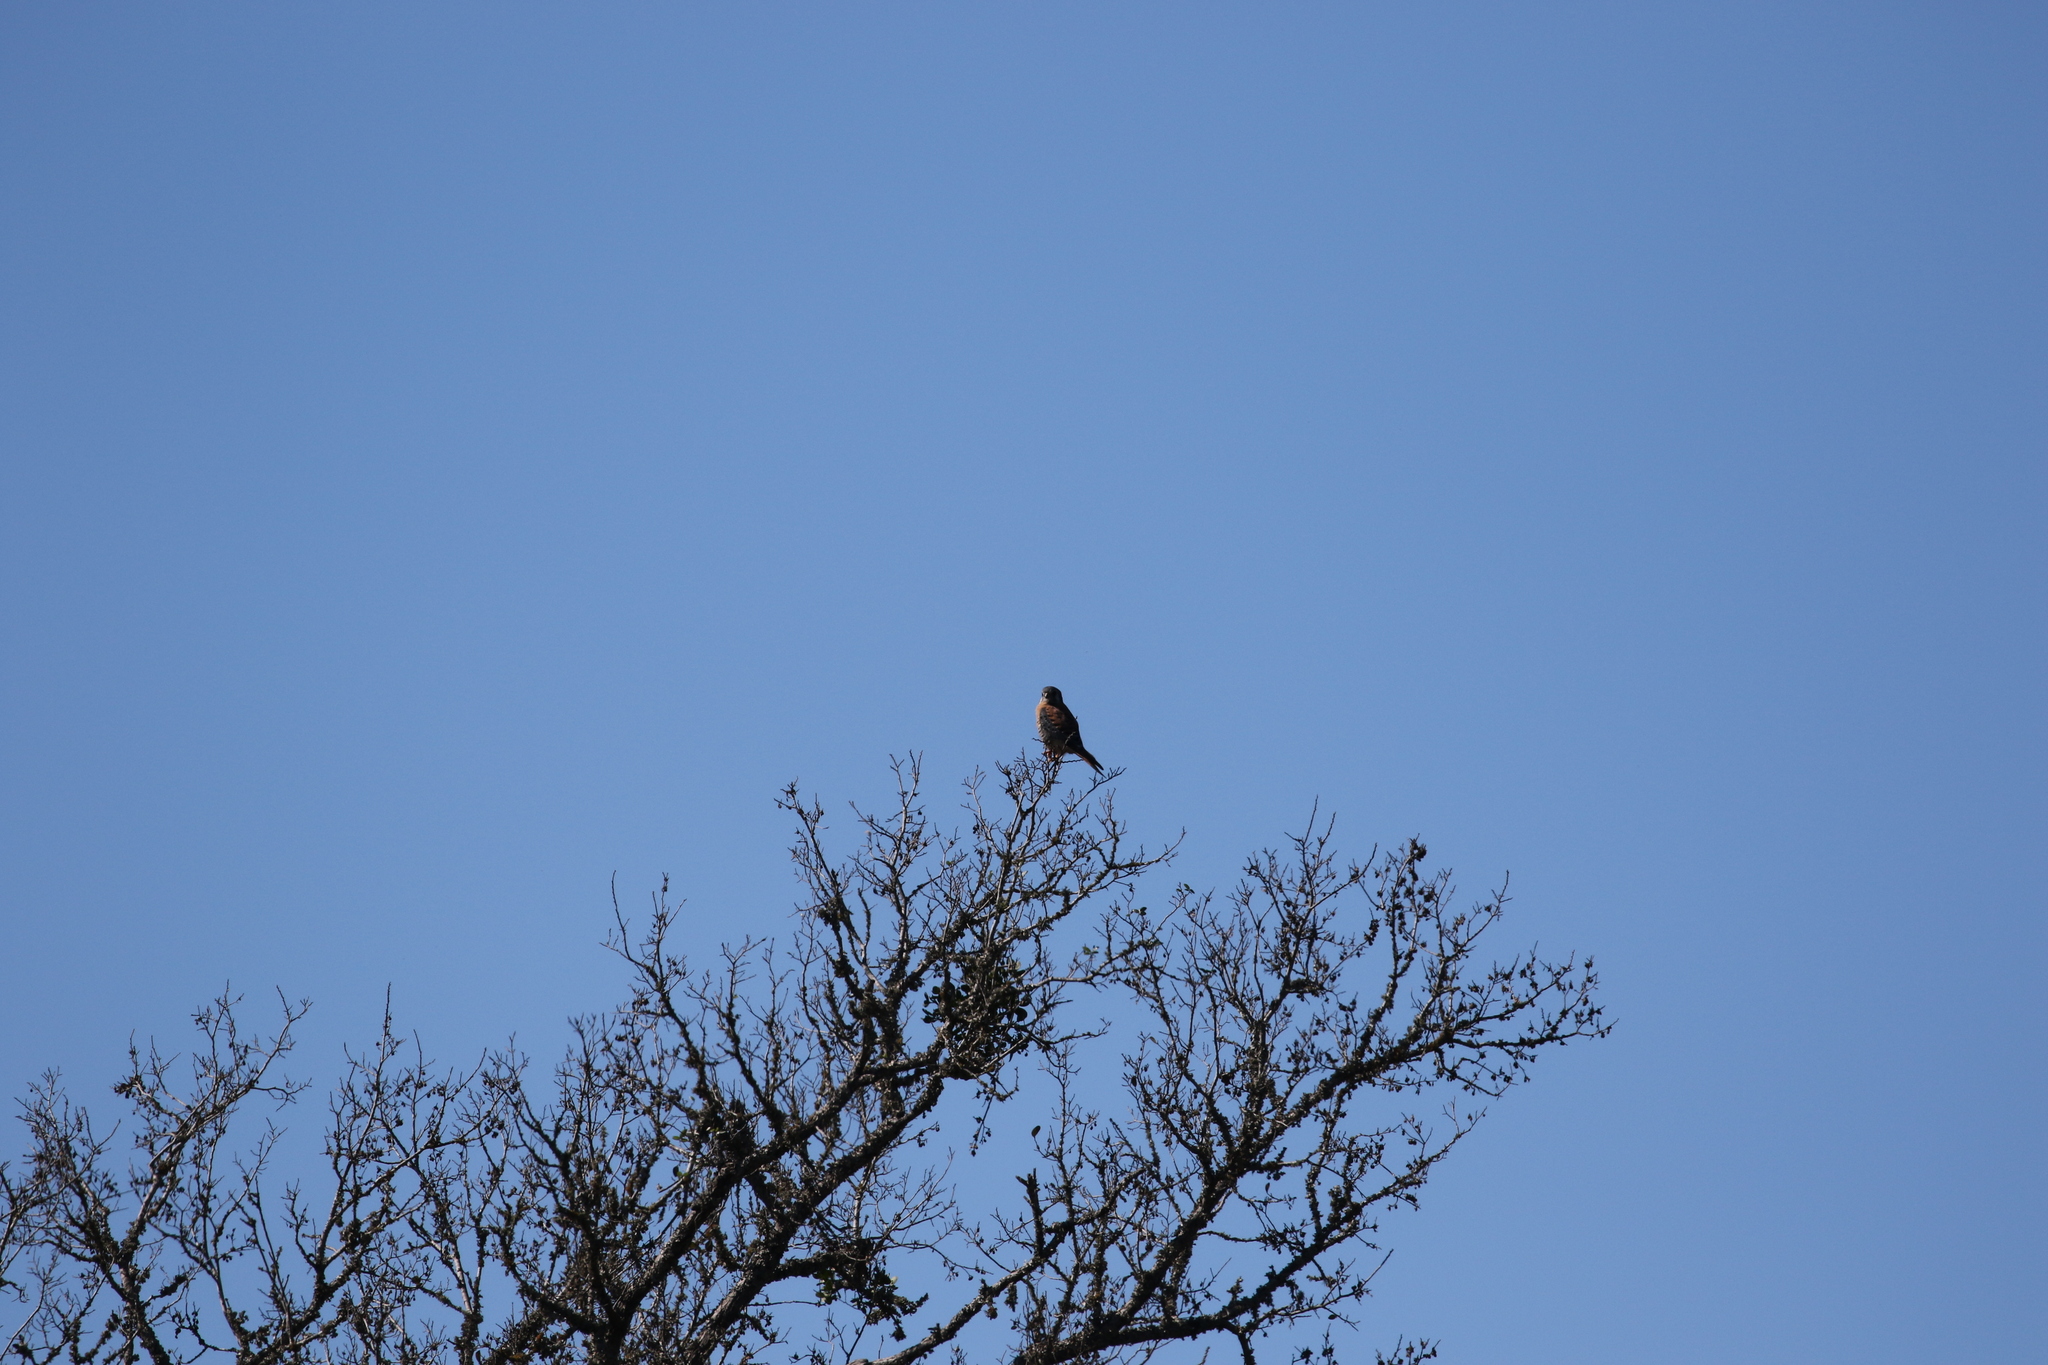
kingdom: Animalia
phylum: Chordata
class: Aves
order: Falconiformes
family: Falconidae
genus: Falco
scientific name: Falco sparverius
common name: American kestrel
